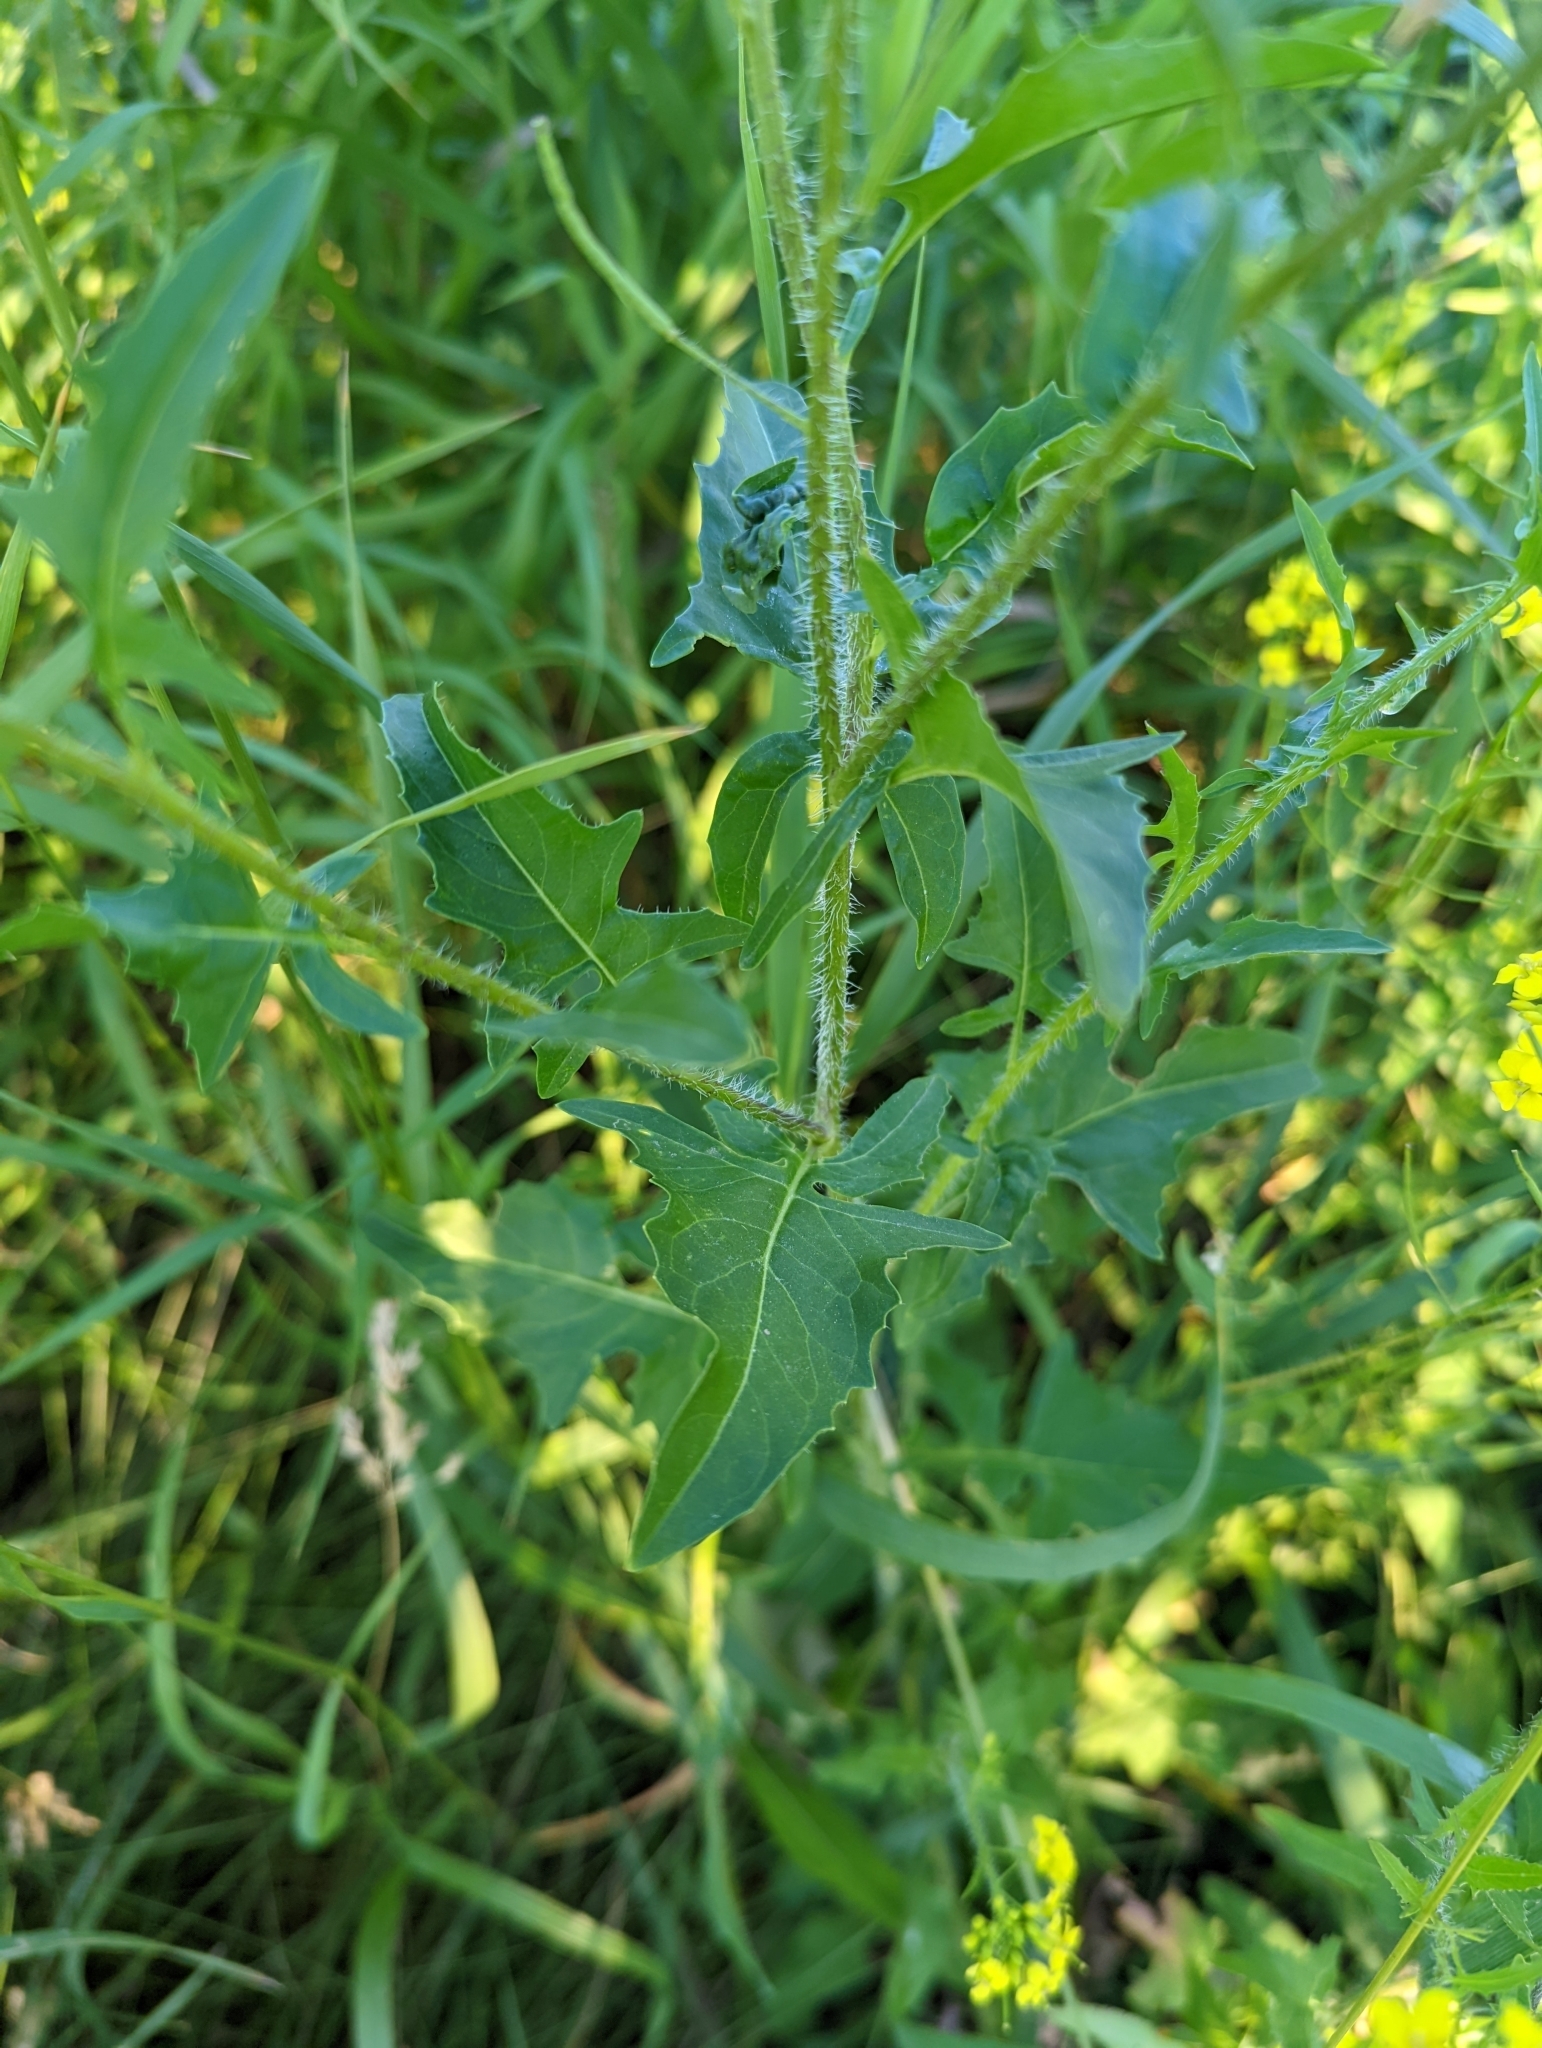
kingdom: Plantae
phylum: Tracheophyta
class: Magnoliopsida
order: Brassicales
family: Brassicaceae
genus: Sisymbrium
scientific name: Sisymbrium loeselii
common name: False london-rocket
